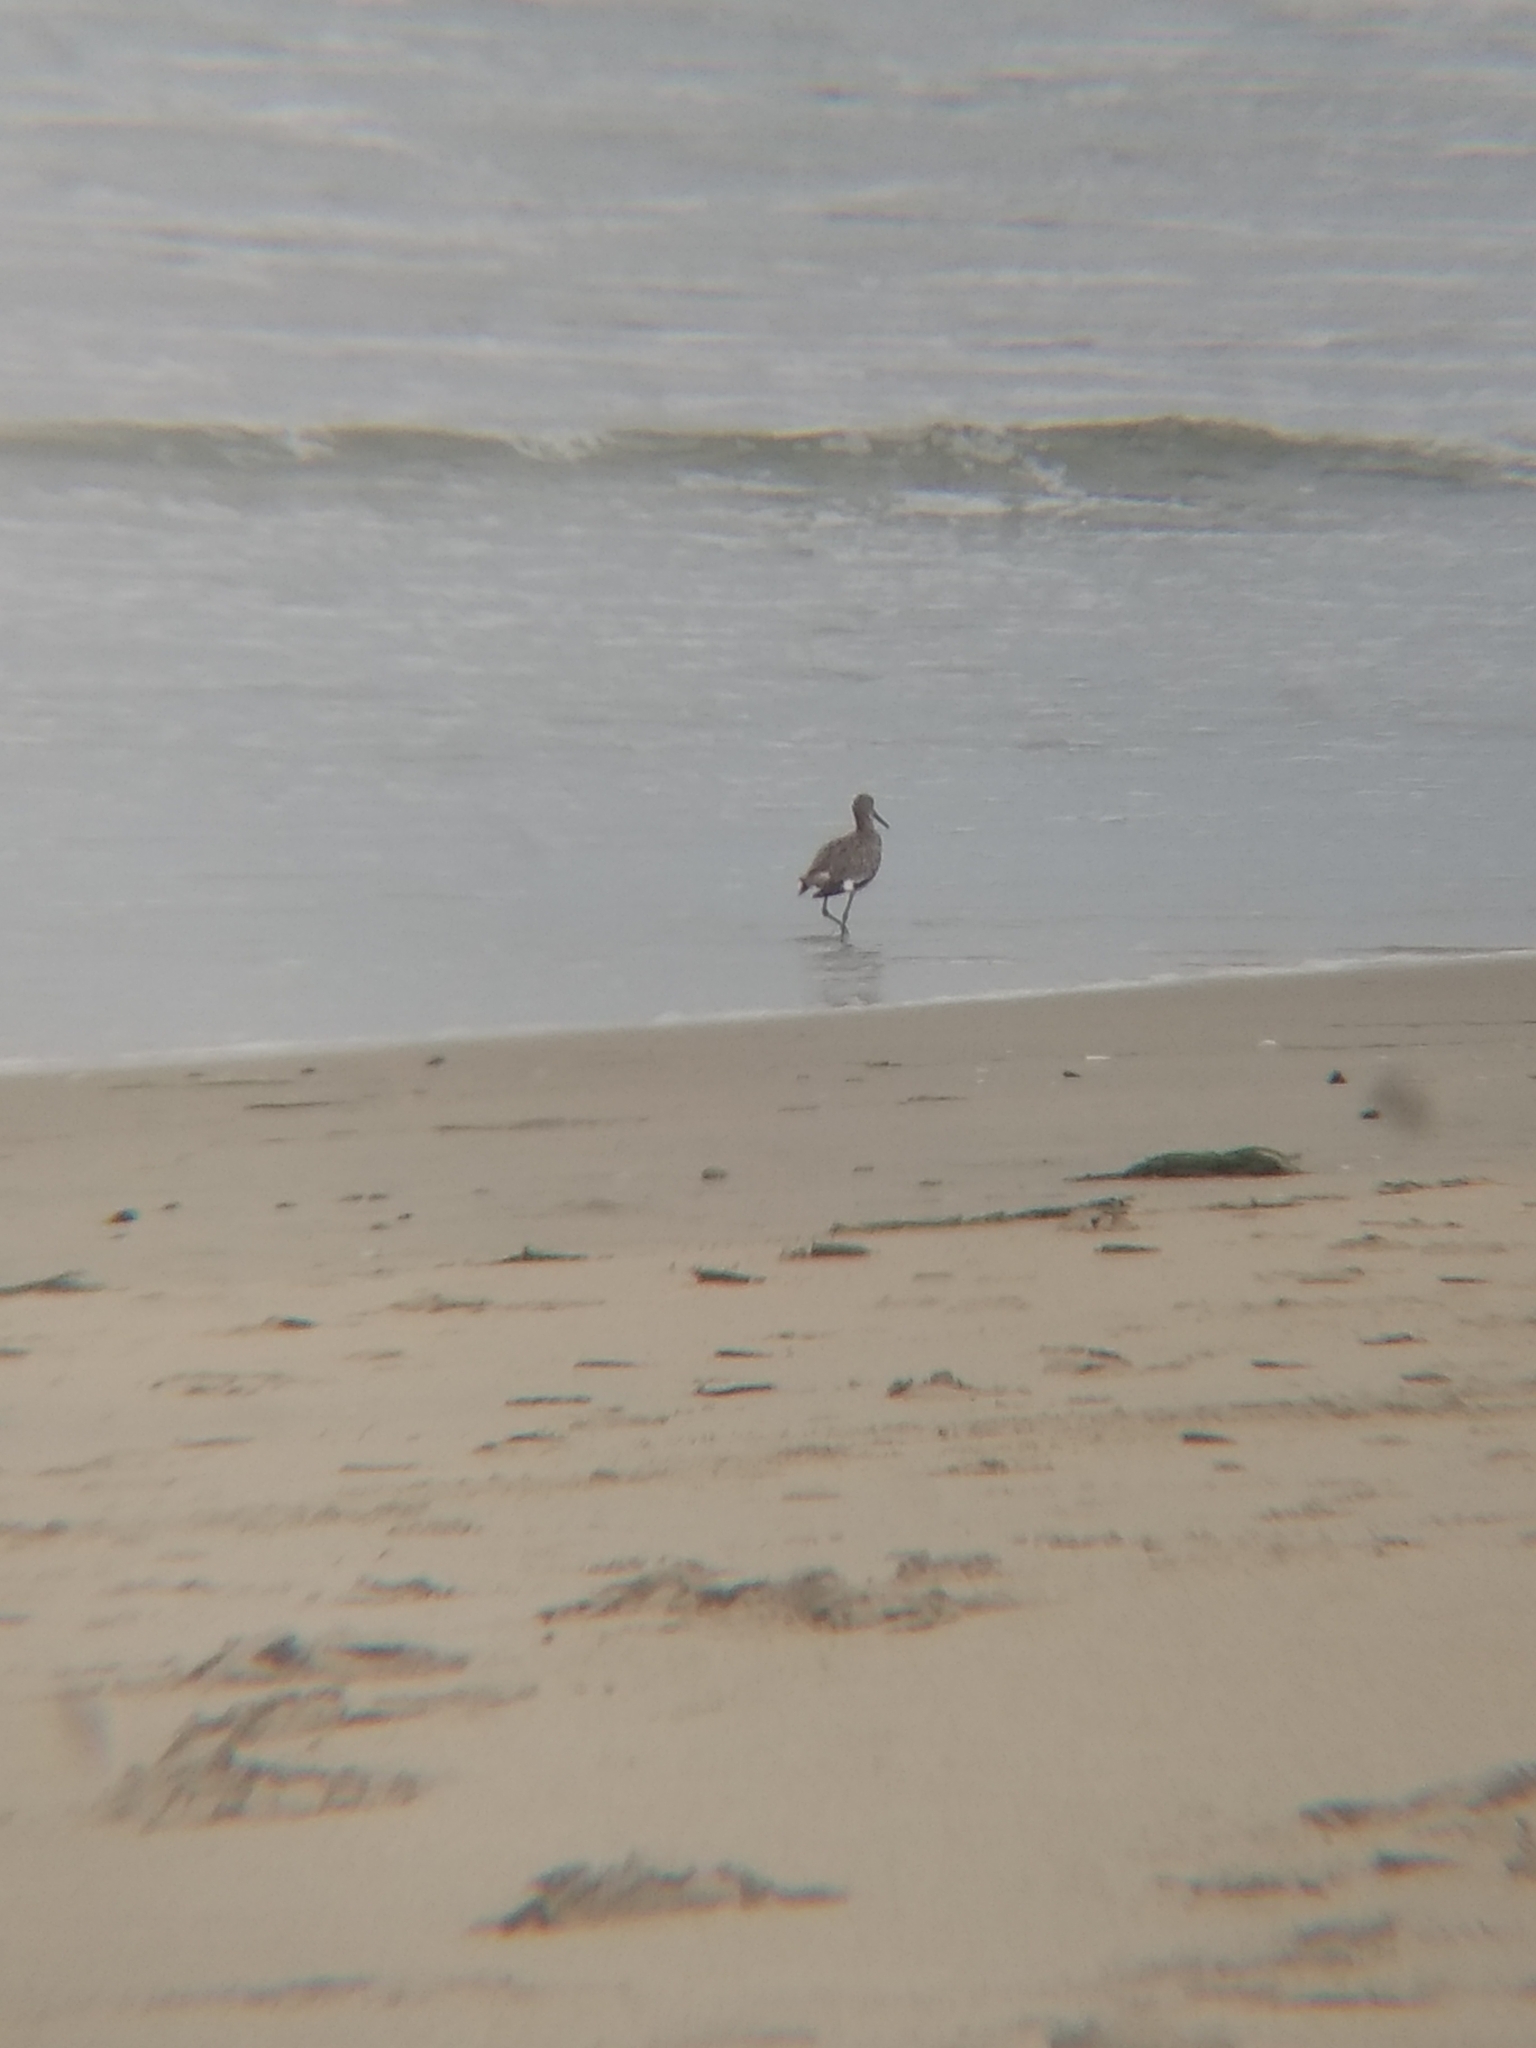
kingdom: Animalia
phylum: Chordata
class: Aves
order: Charadriiformes
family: Scolopacidae
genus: Tringa
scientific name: Tringa semipalmata
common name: Willet
